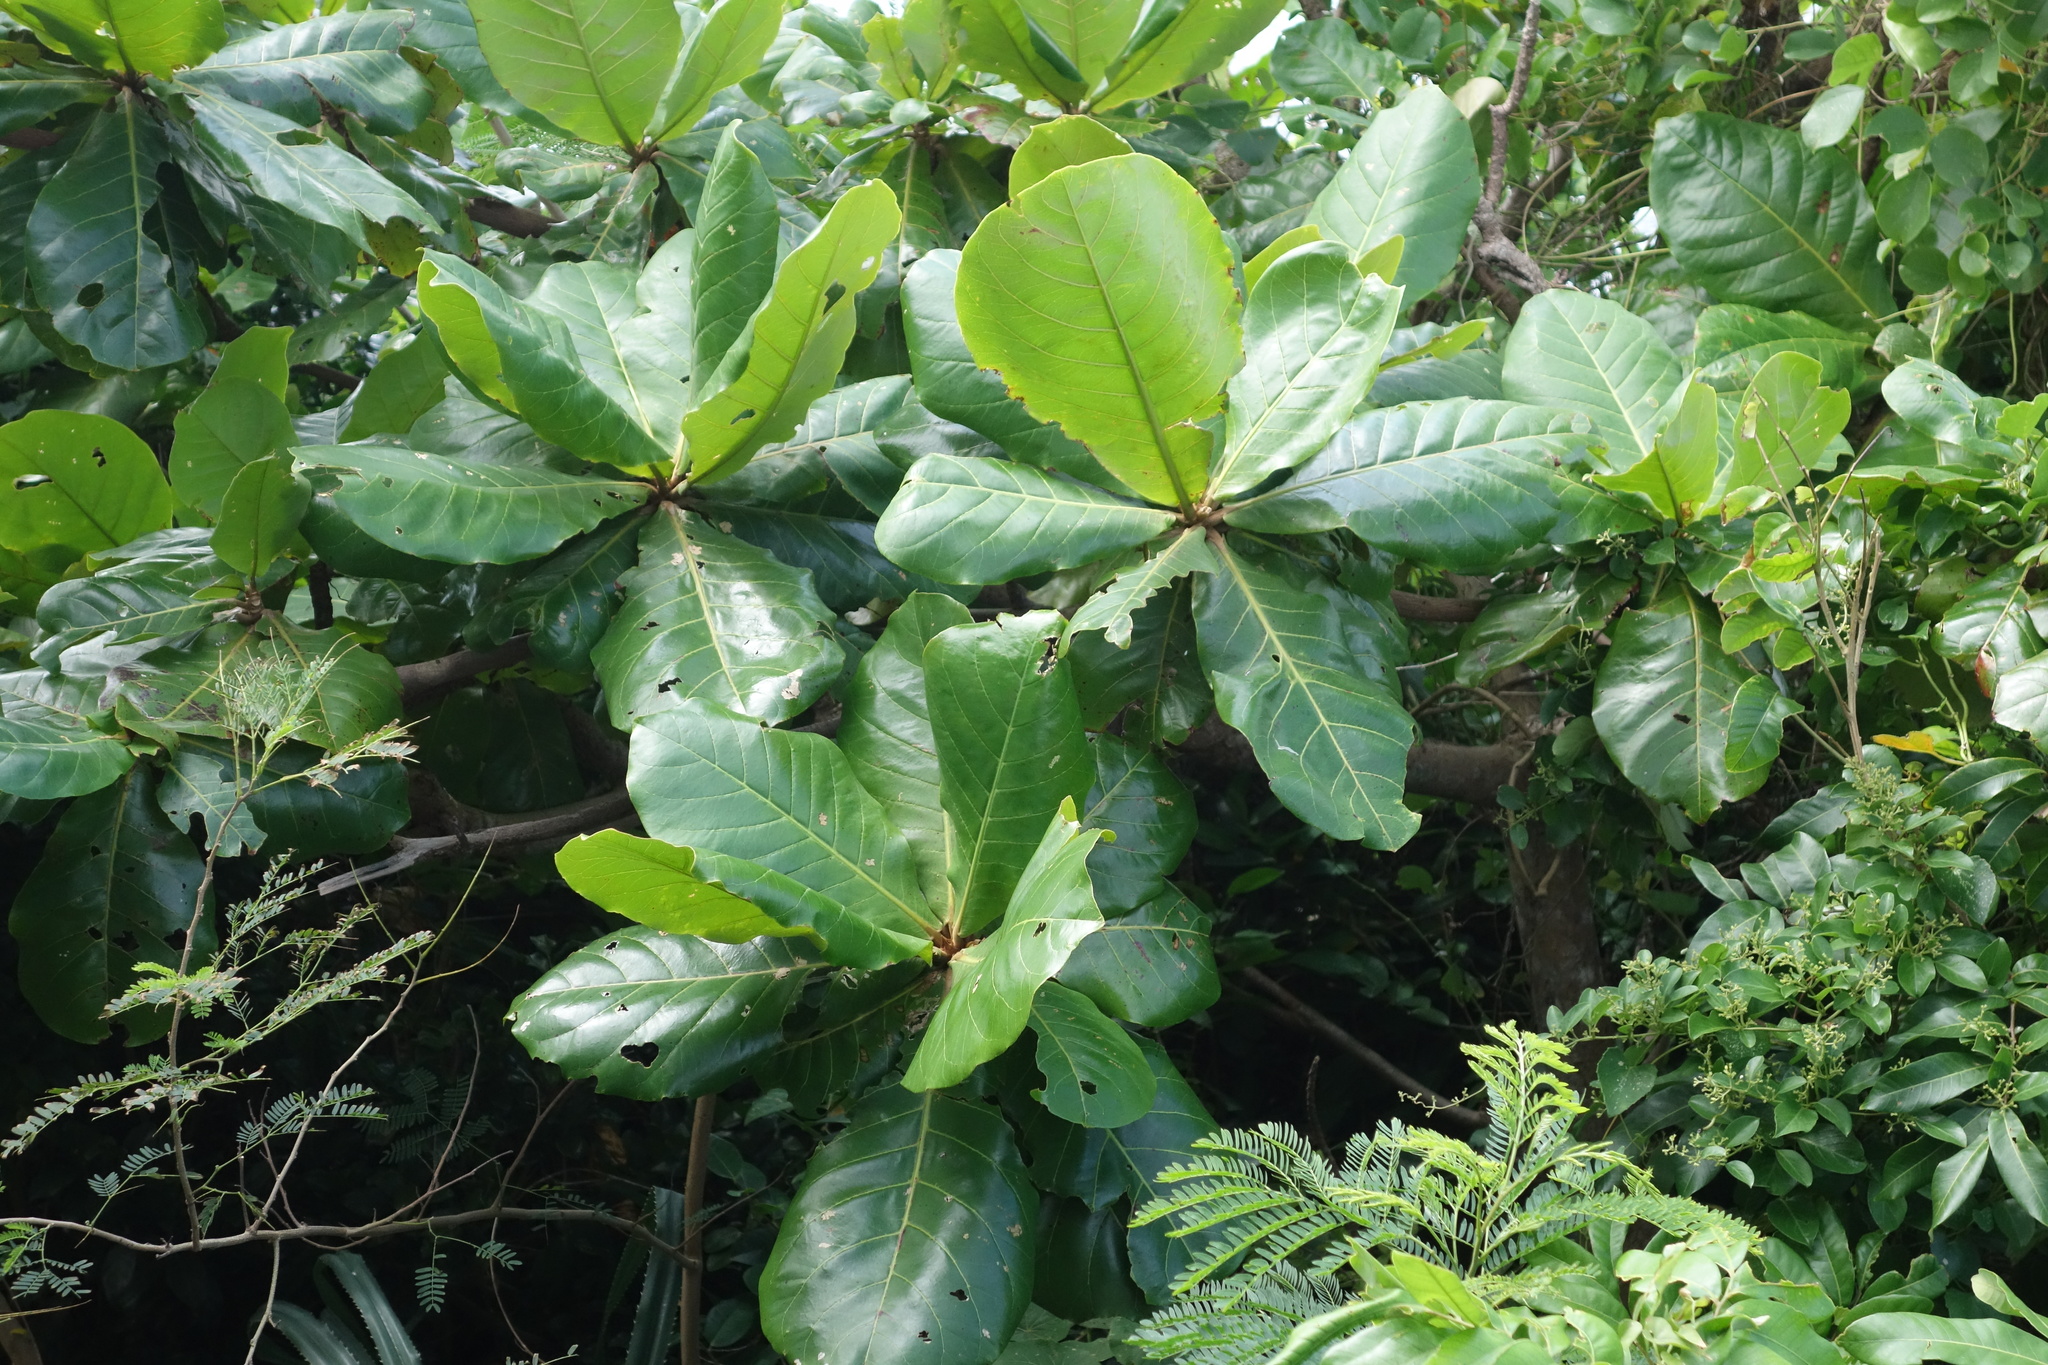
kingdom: Plantae
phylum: Tracheophyta
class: Magnoliopsida
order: Myrtales
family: Combretaceae
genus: Terminalia
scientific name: Terminalia catappa
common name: Tropical almond
